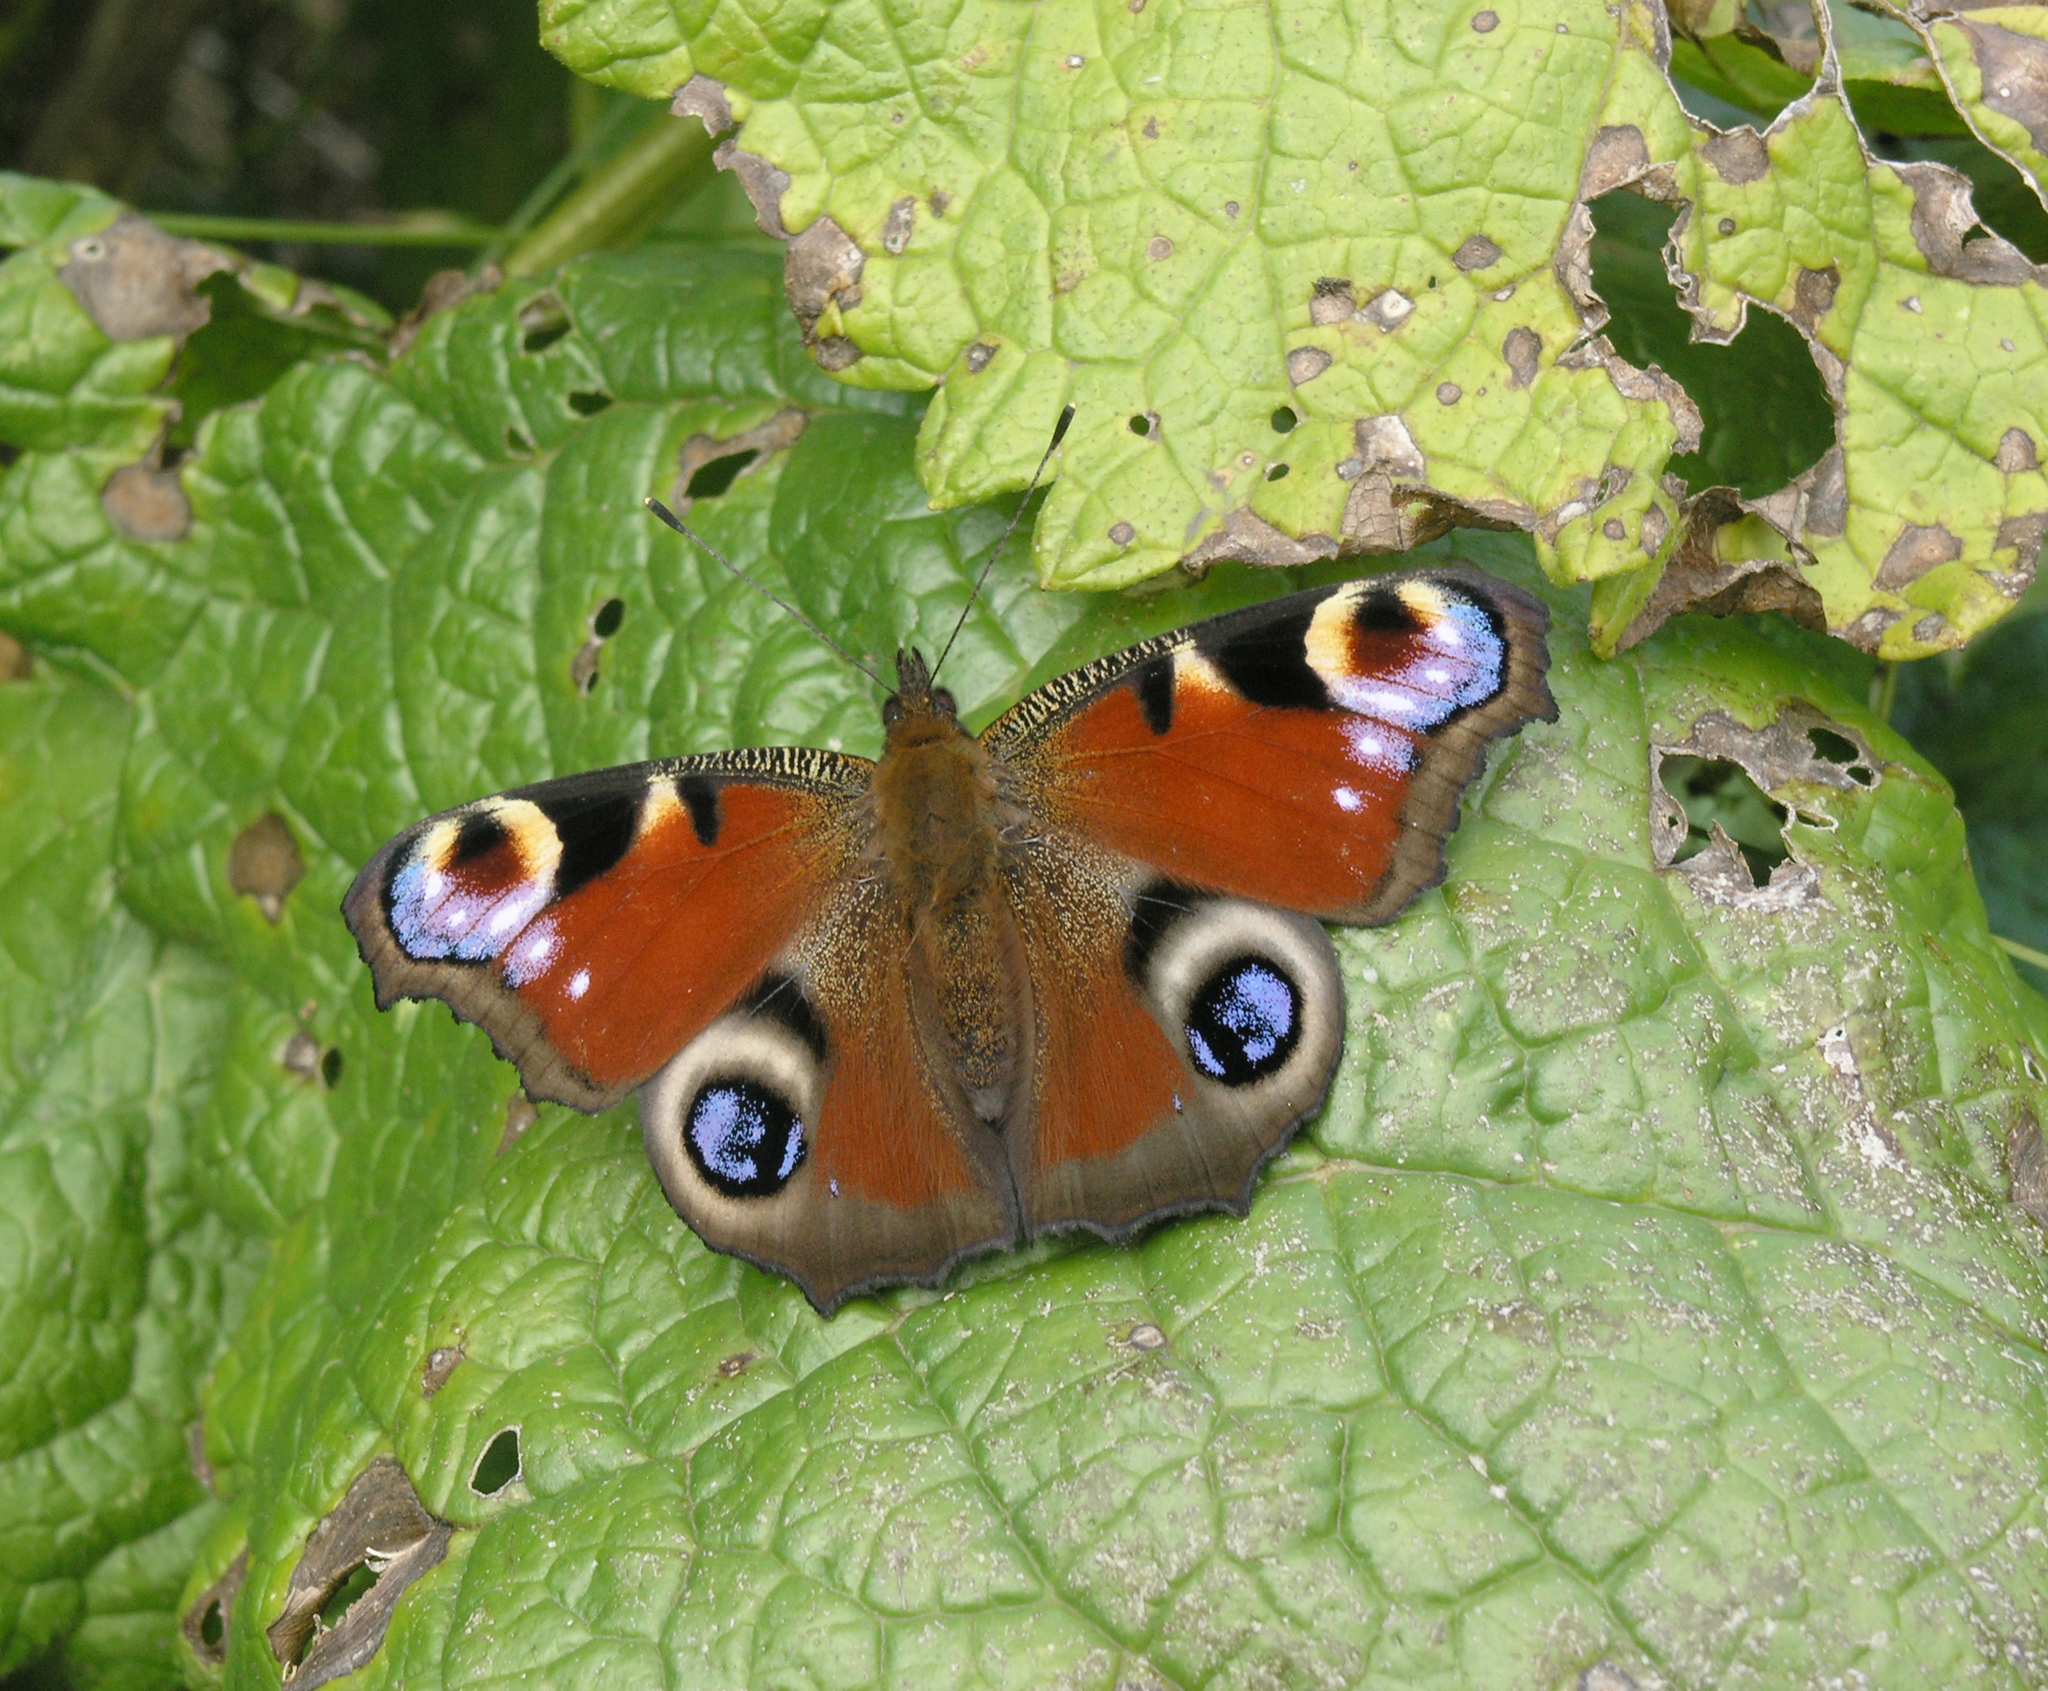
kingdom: Animalia
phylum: Arthropoda
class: Insecta
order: Lepidoptera
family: Nymphalidae
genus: Aglais
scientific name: Aglais io
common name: Peacock
